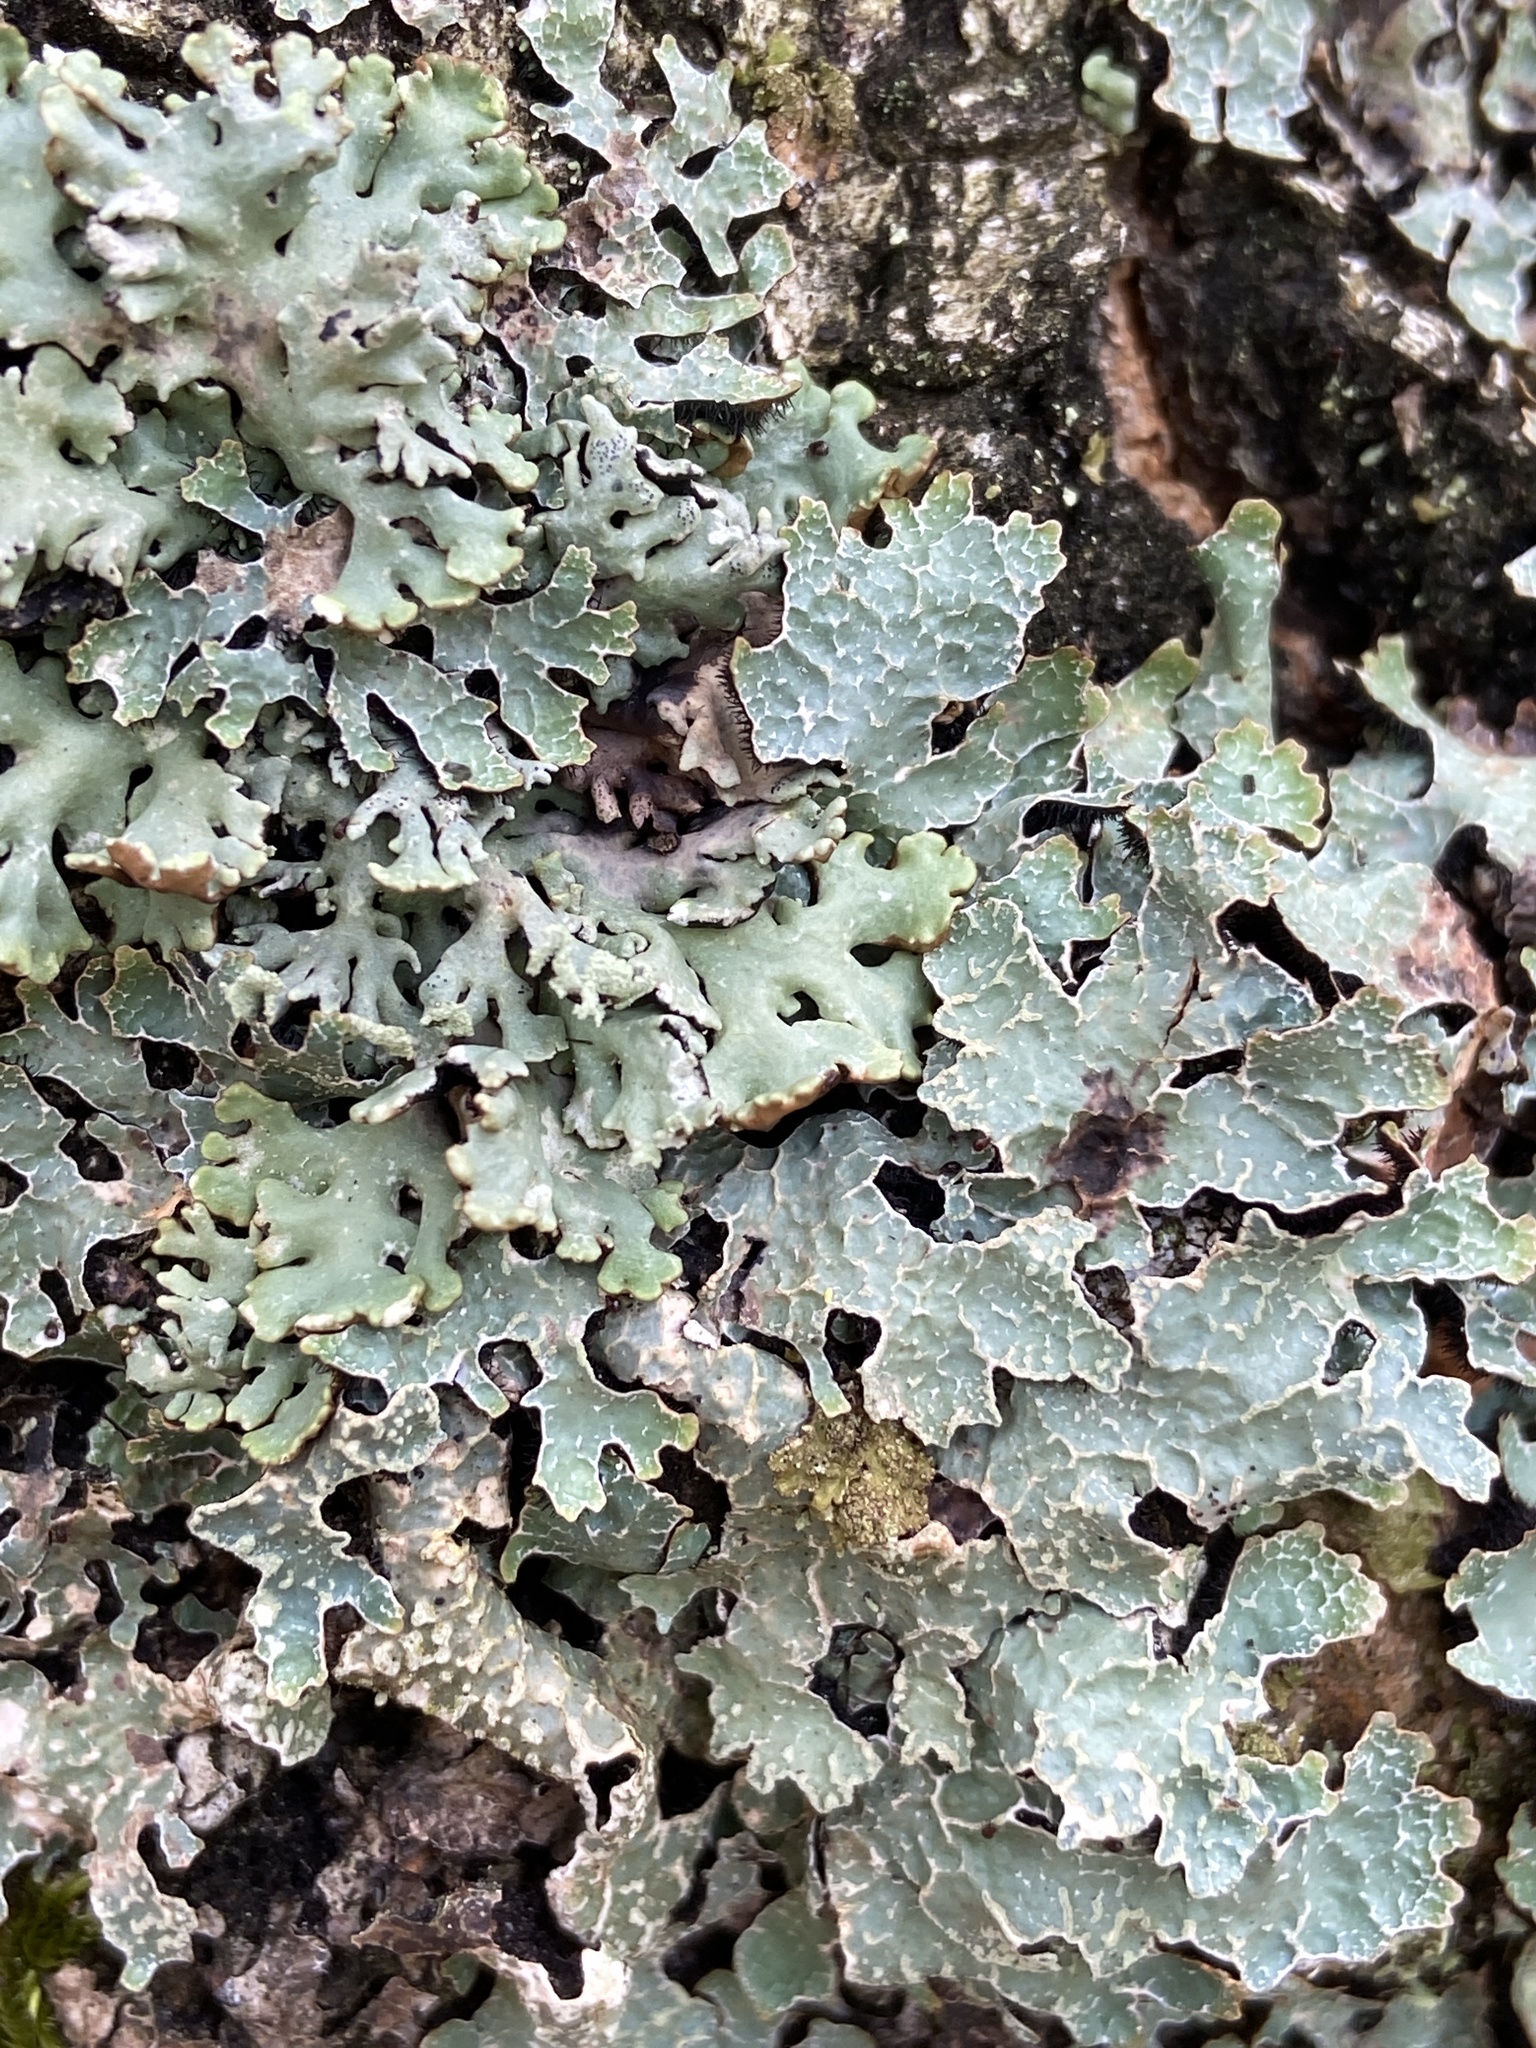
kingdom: Fungi
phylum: Ascomycota
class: Lecanoromycetes
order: Lecanorales
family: Parmeliaceae
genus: Parmelia
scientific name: Parmelia sulcata
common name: Netted shield lichen
